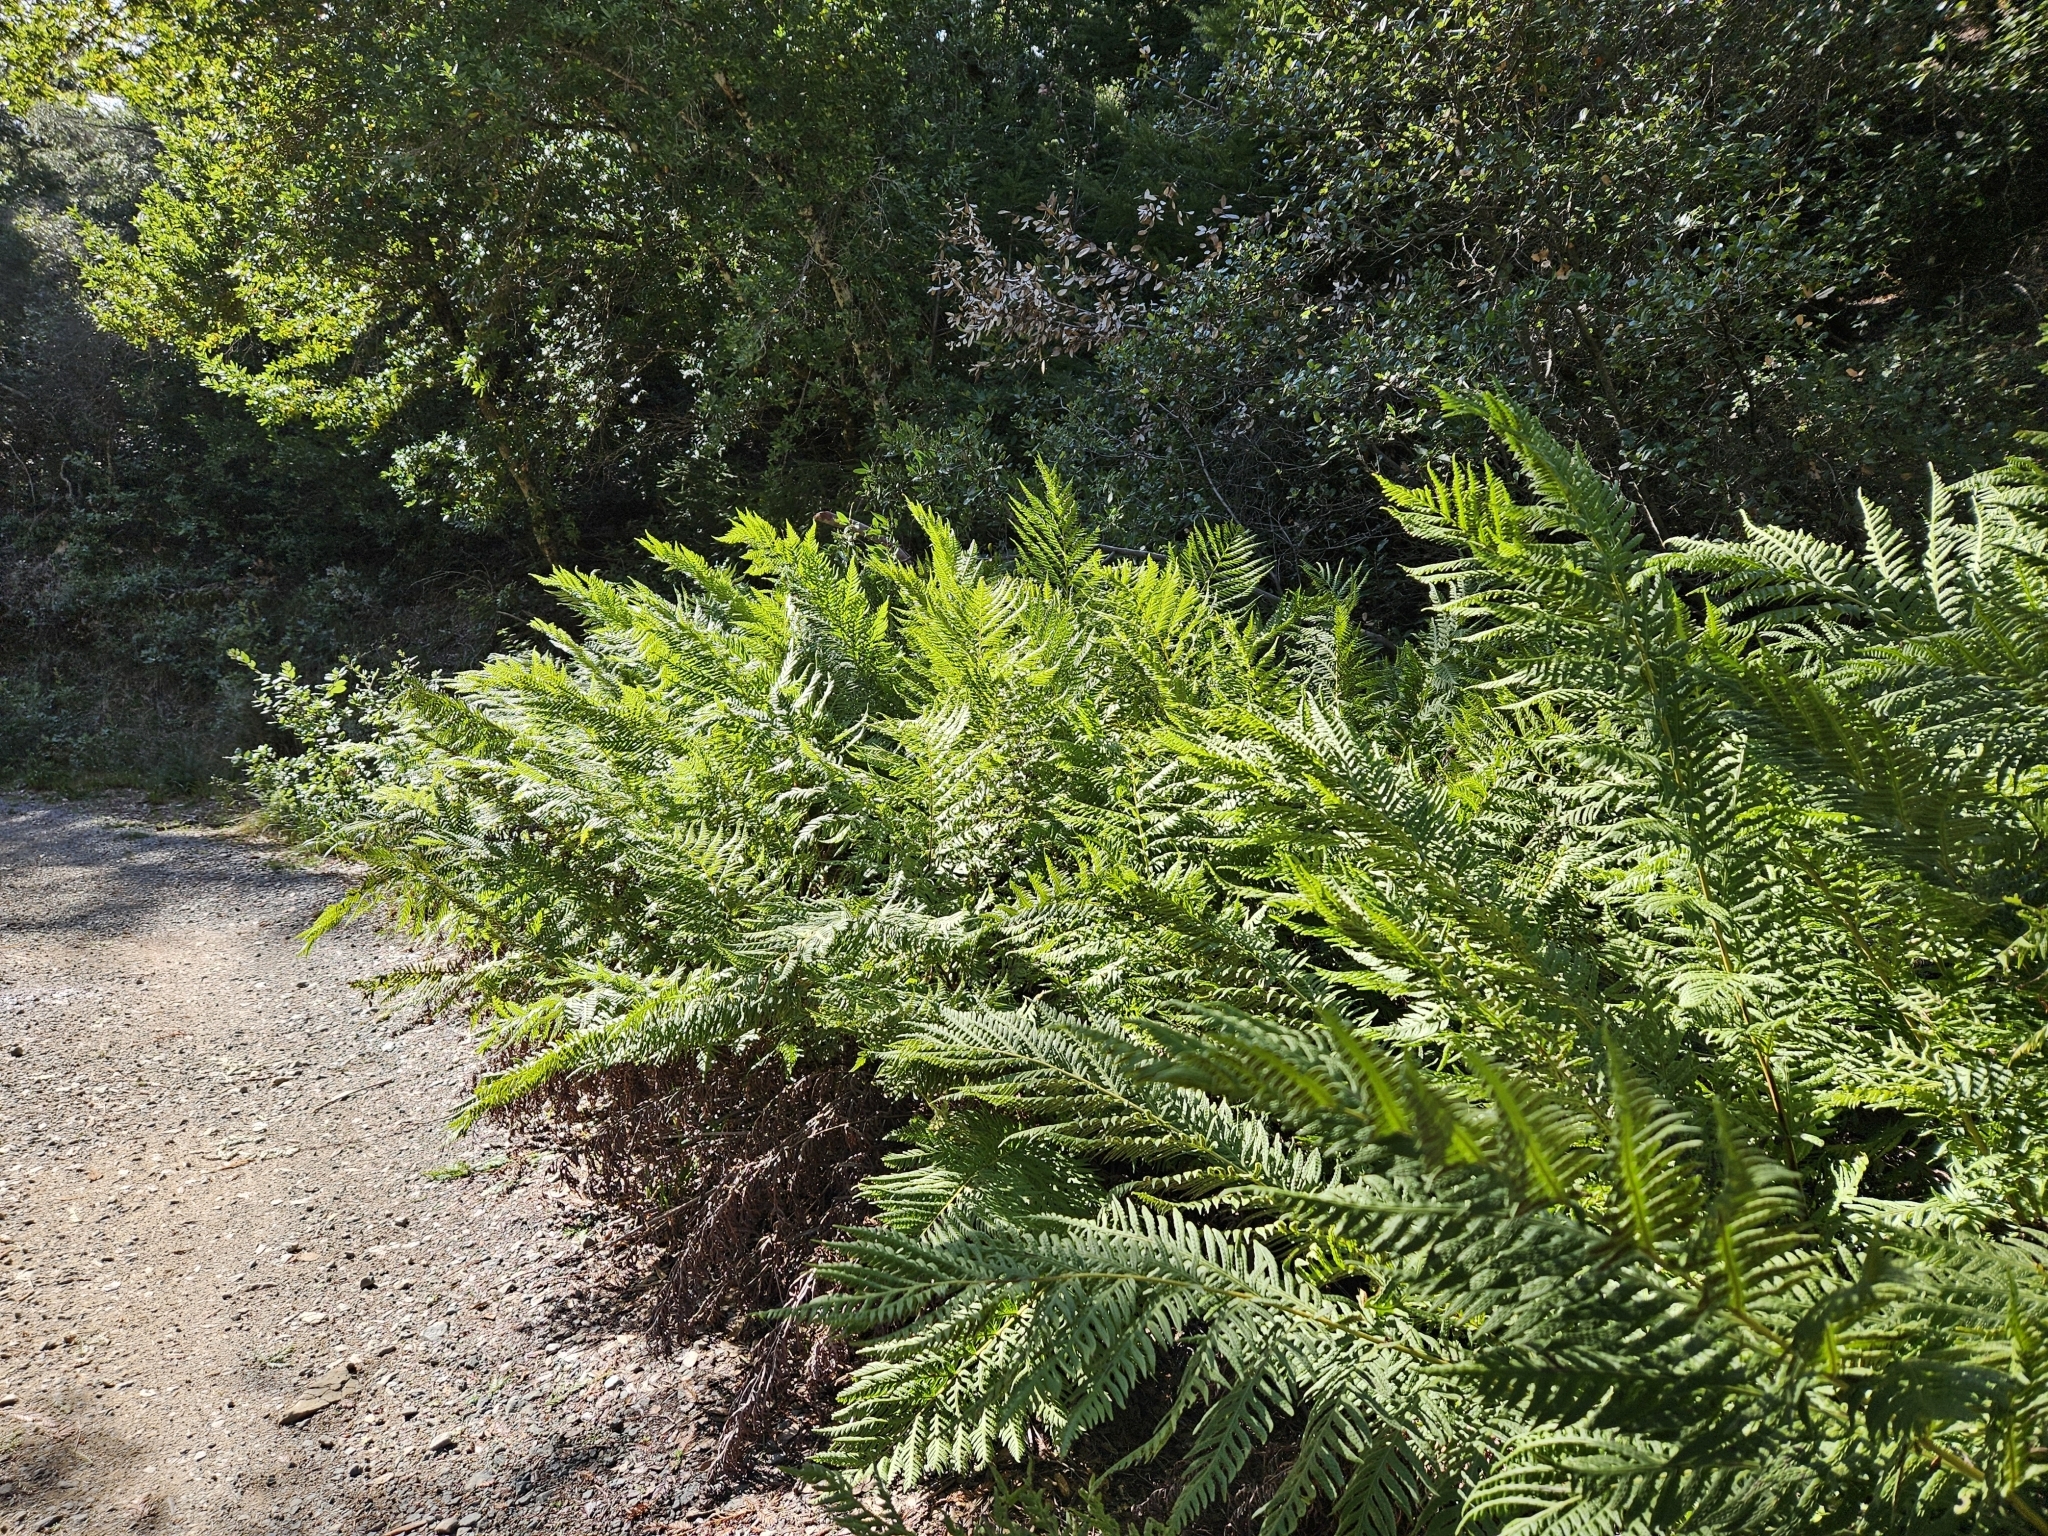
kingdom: Plantae
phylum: Tracheophyta
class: Polypodiopsida
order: Polypodiales
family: Blechnaceae
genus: Woodwardia
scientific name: Woodwardia fimbriata
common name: Giant chain fern
